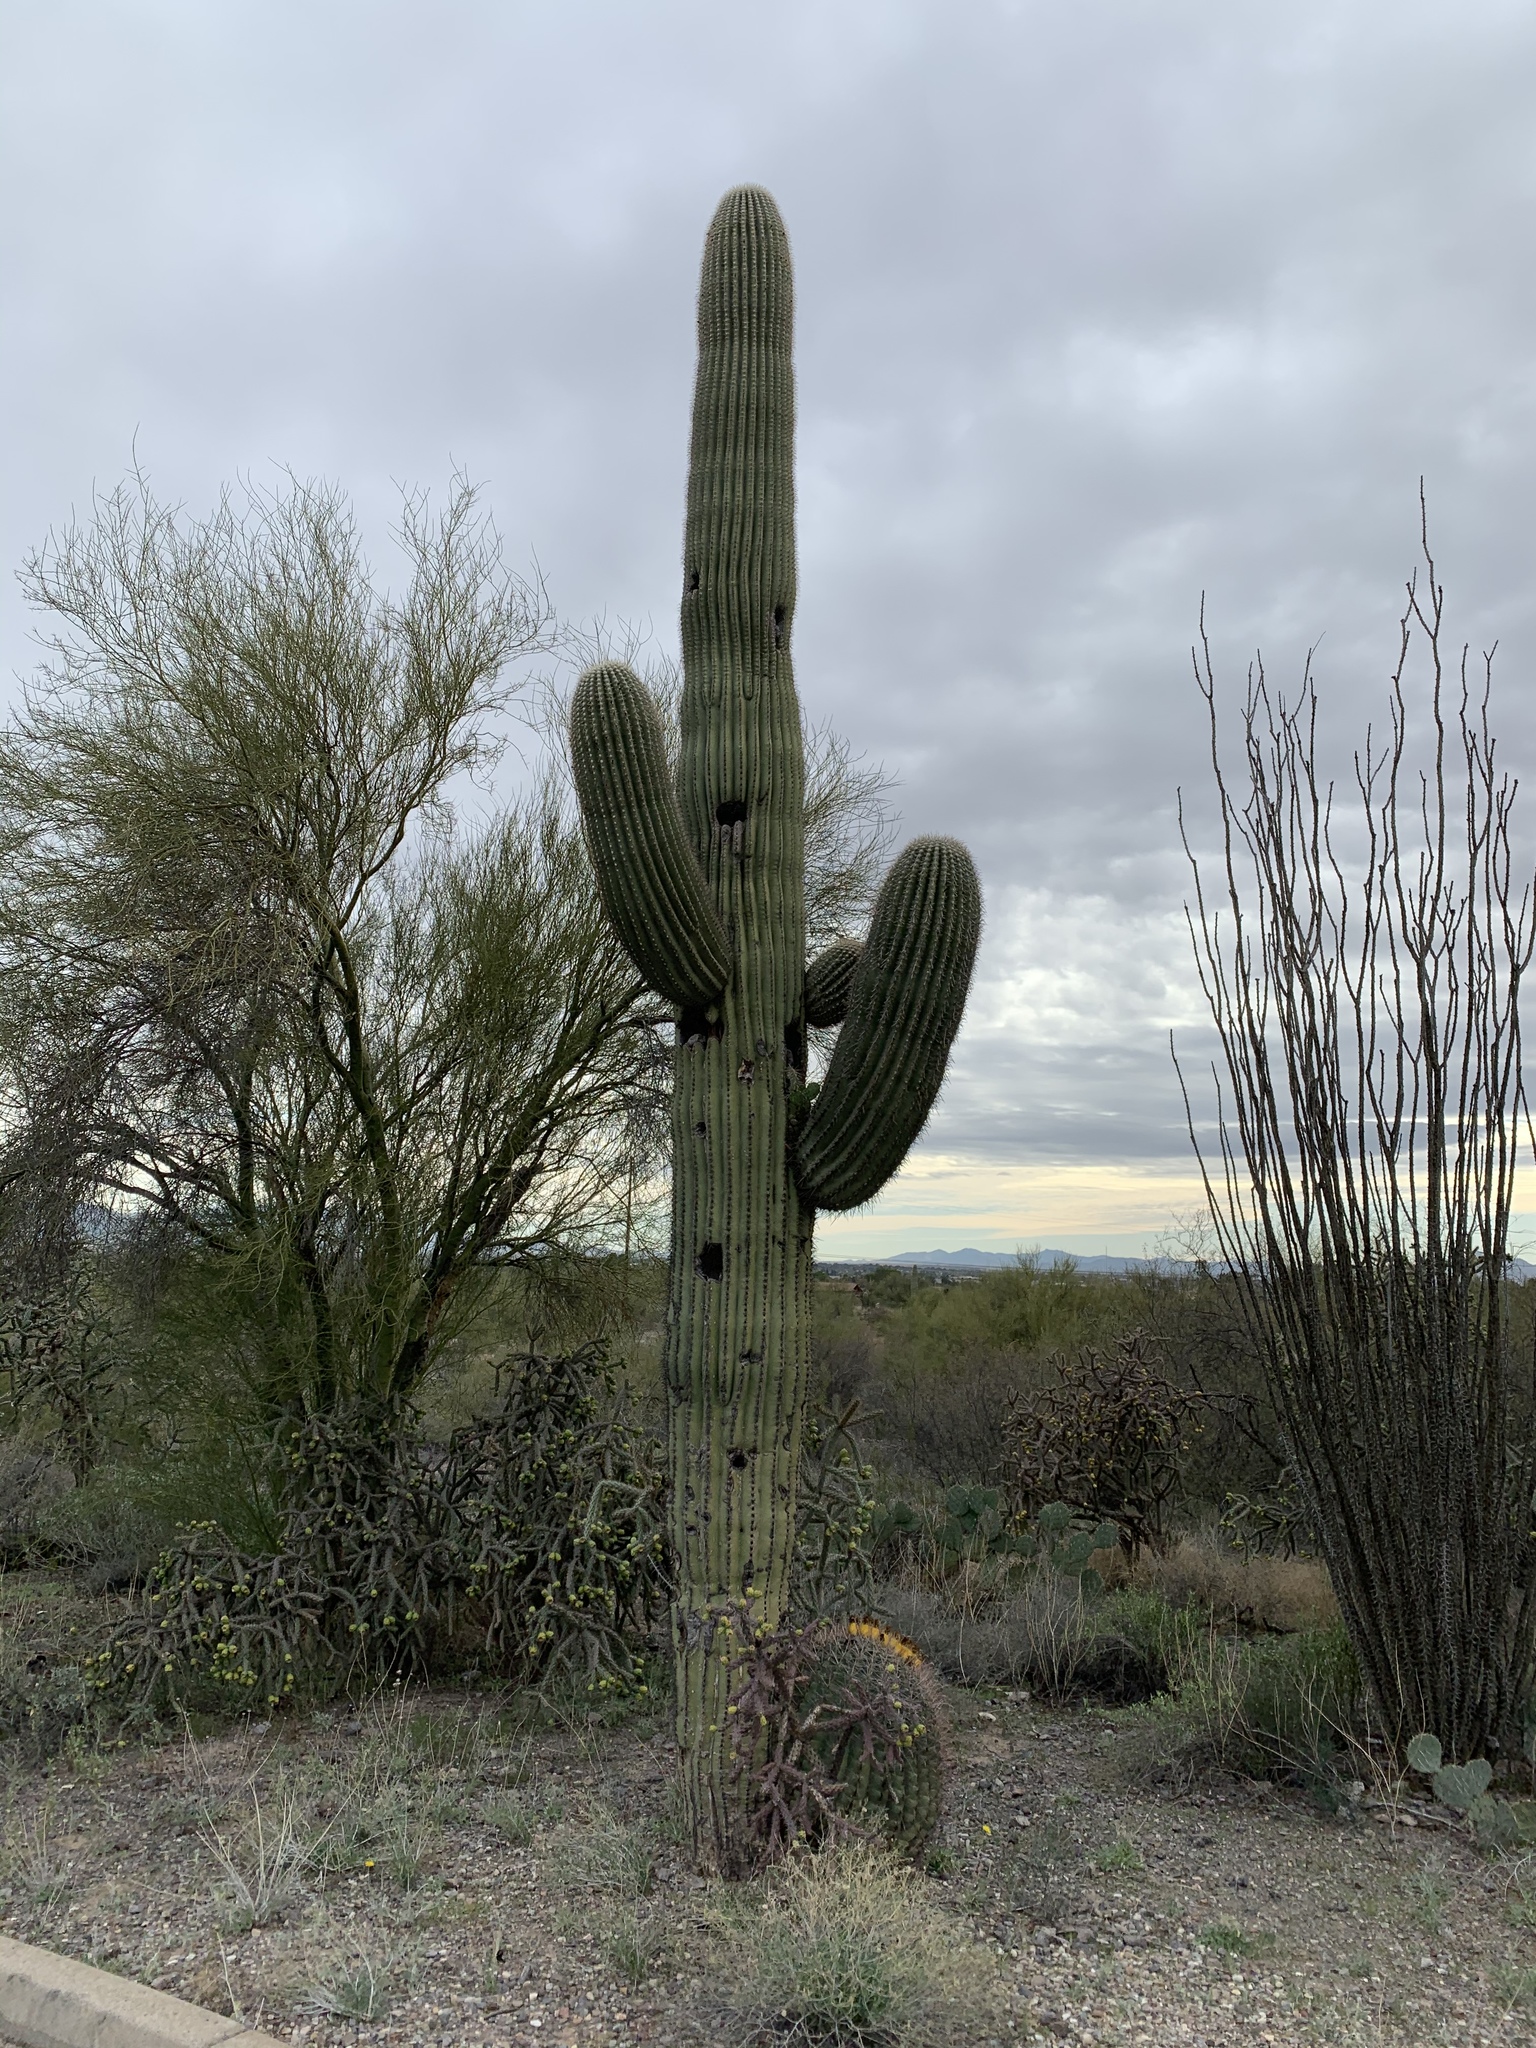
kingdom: Plantae
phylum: Tracheophyta
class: Magnoliopsida
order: Caryophyllales
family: Cactaceae
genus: Carnegiea
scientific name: Carnegiea gigantea
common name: Saguaro
